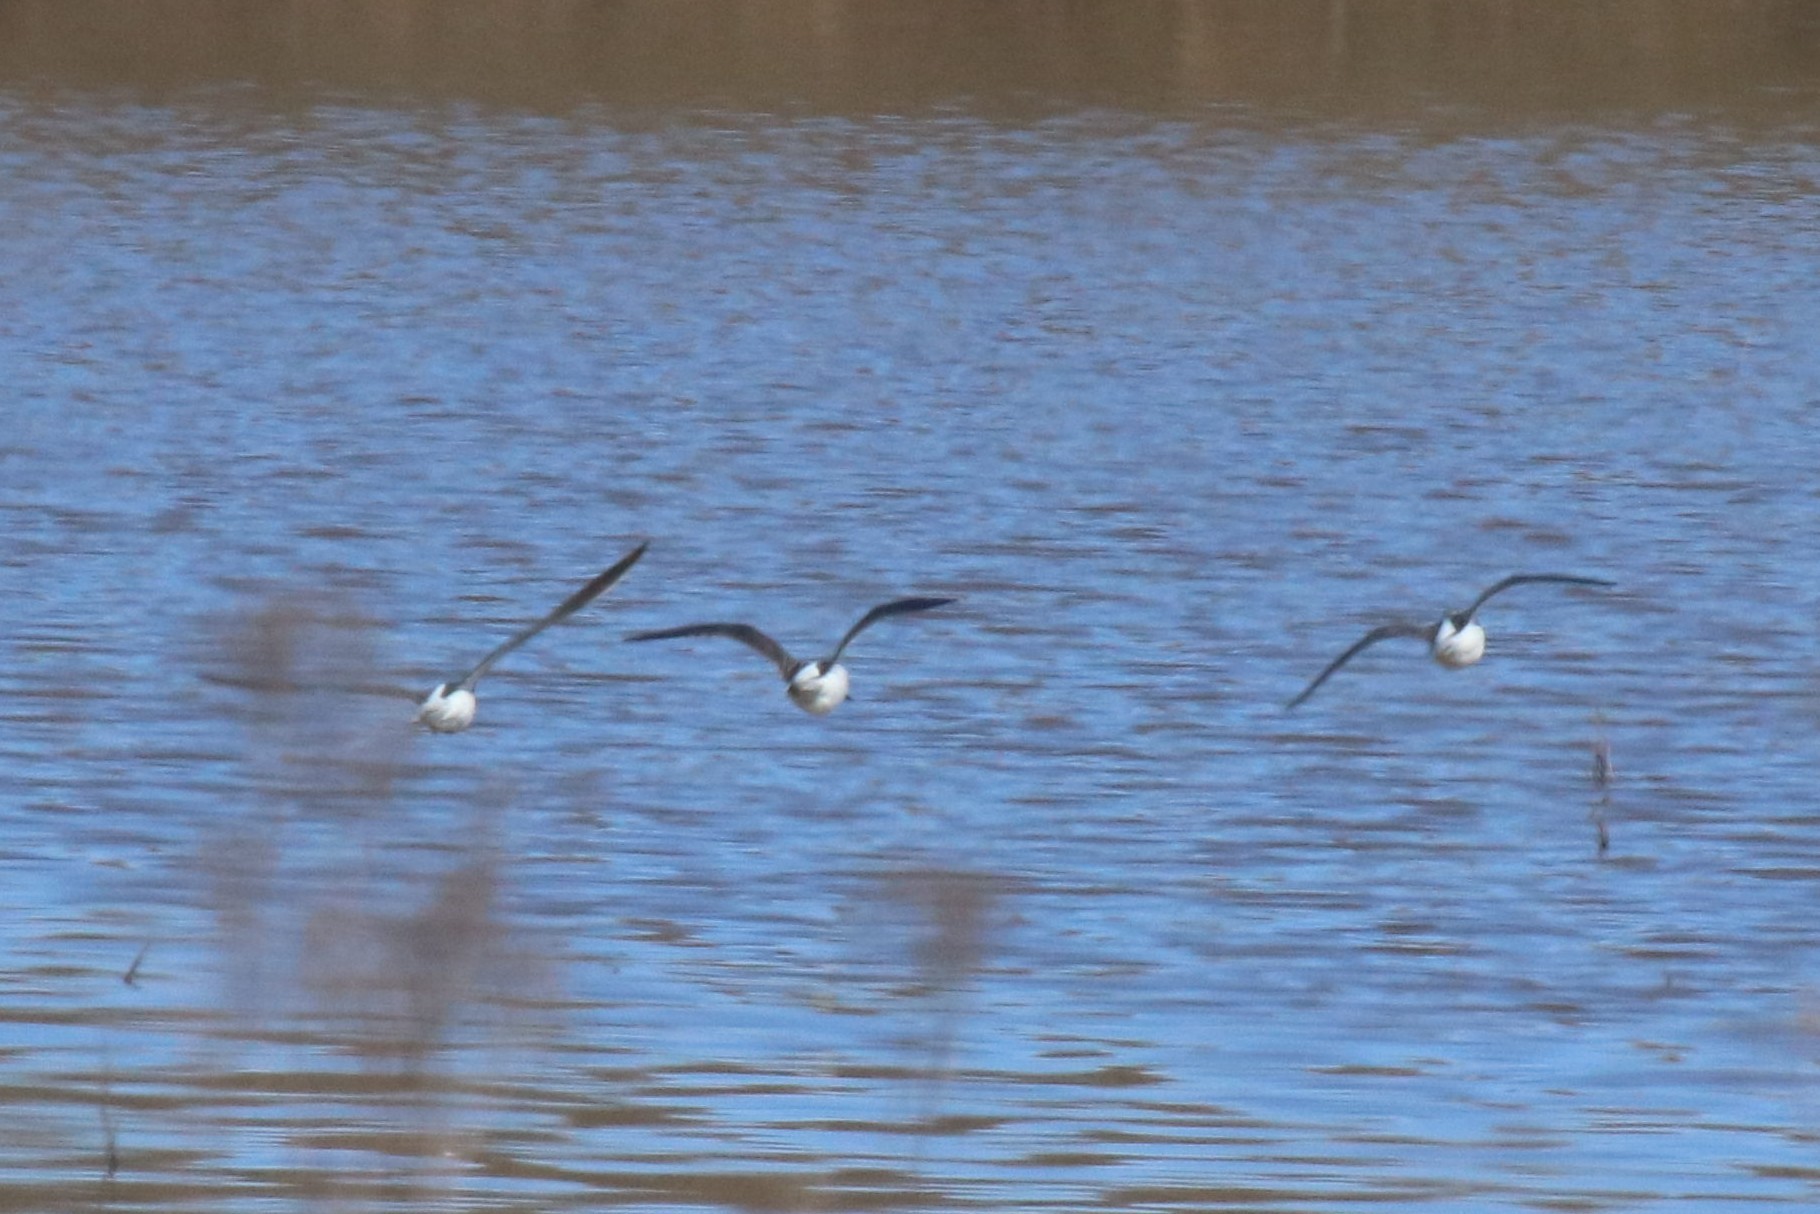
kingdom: Animalia
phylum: Chordata
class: Aves
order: Charadriiformes
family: Scolopacidae
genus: Tringa
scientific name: Tringa nebularia
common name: Common greenshank
